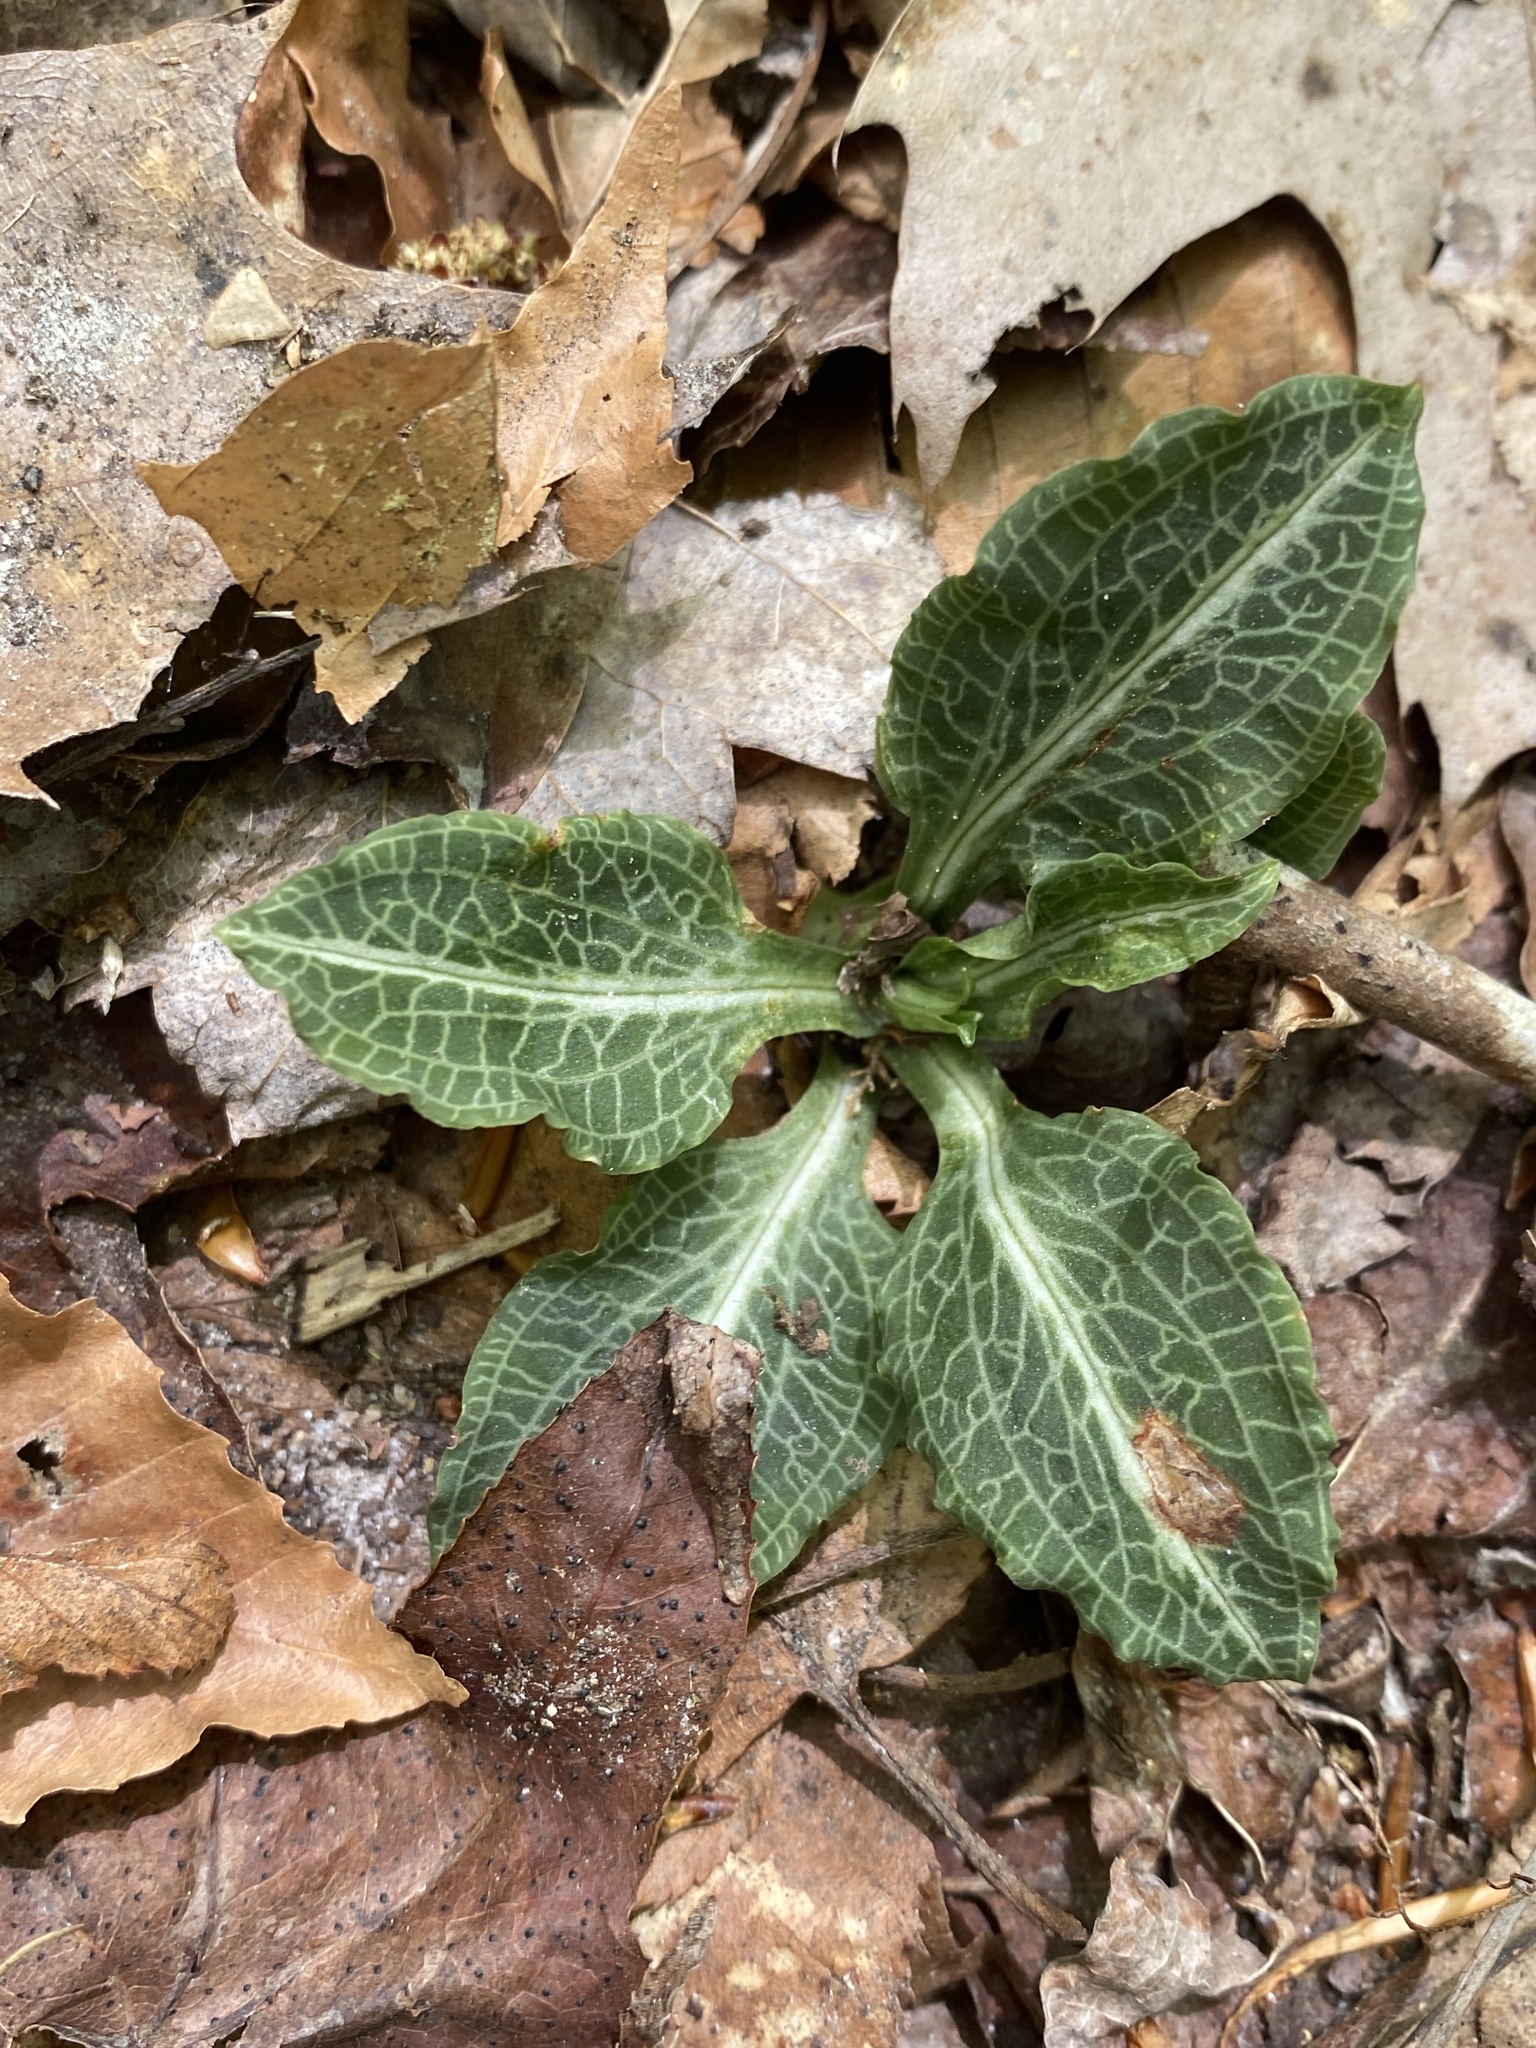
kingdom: Plantae
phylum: Tracheophyta
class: Liliopsida
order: Asparagales
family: Orchidaceae
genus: Goodyera
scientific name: Goodyera pubescens
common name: Downy rattlesnake-plantain
